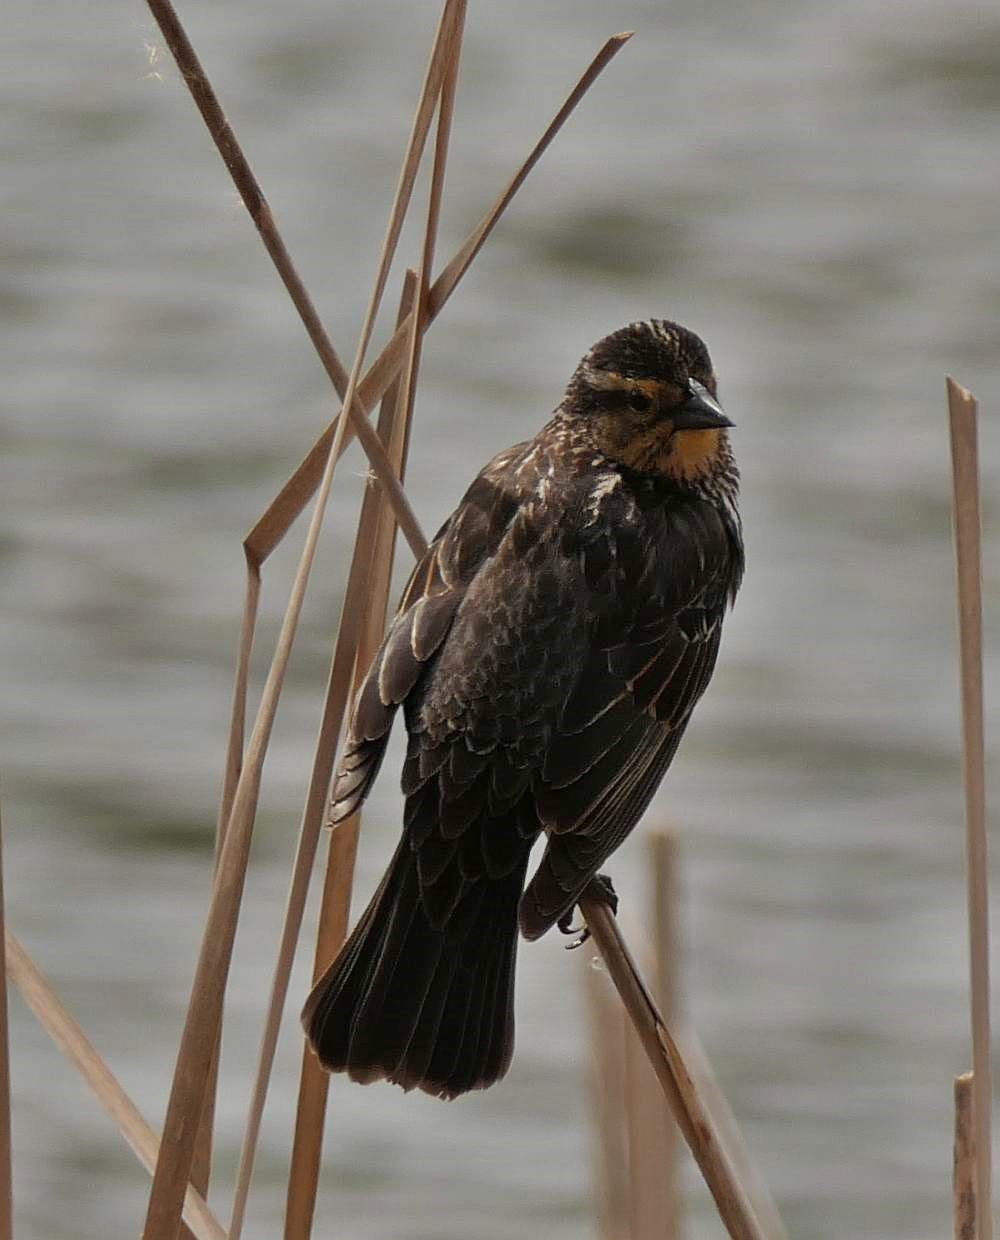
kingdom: Animalia
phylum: Chordata
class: Aves
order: Passeriformes
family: Icteridae
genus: Agelaius
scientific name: Agelaius phoeniceus
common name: Red-winged blackbird
